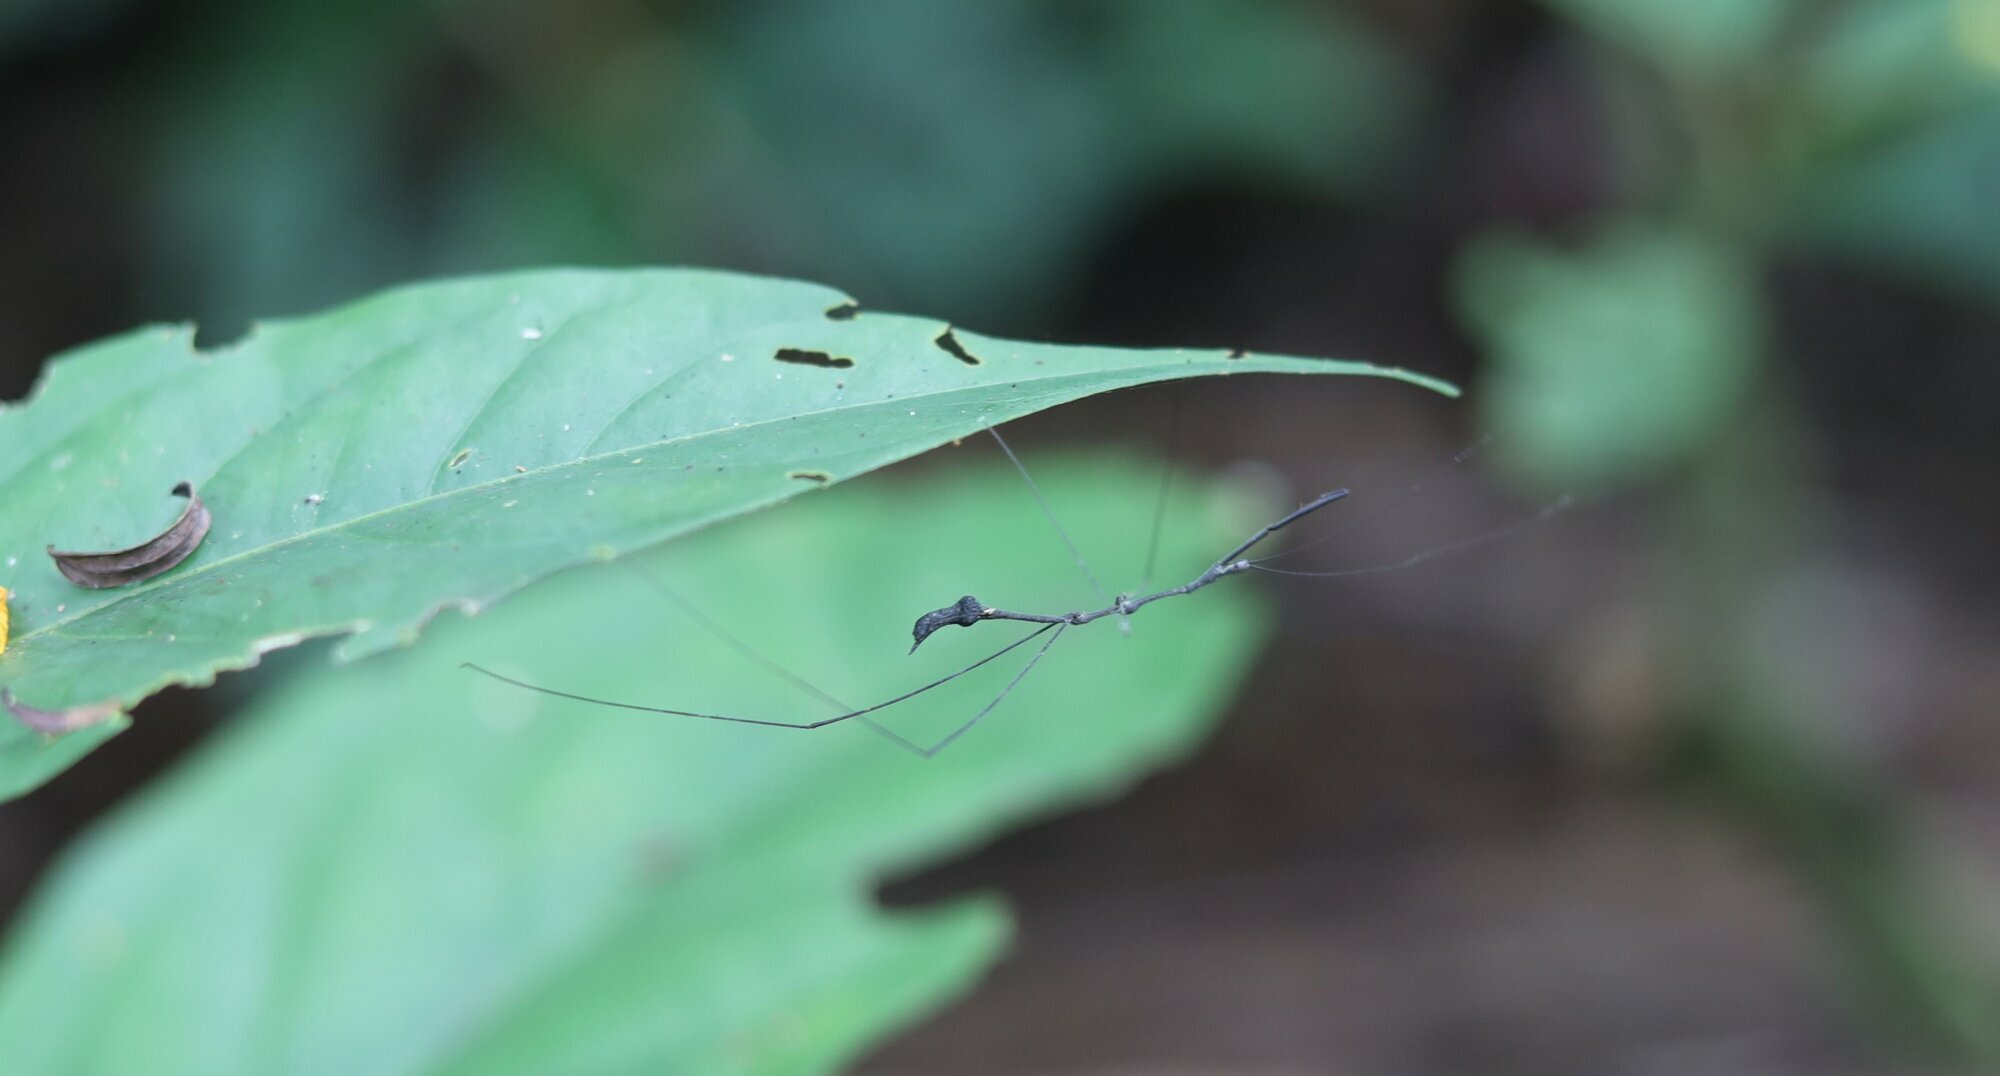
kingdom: Animalia
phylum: Arthropoda
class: Insecta
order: Hemiptera
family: Reduviidae
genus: Ghilianella
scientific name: Ghilianella scimitarra
